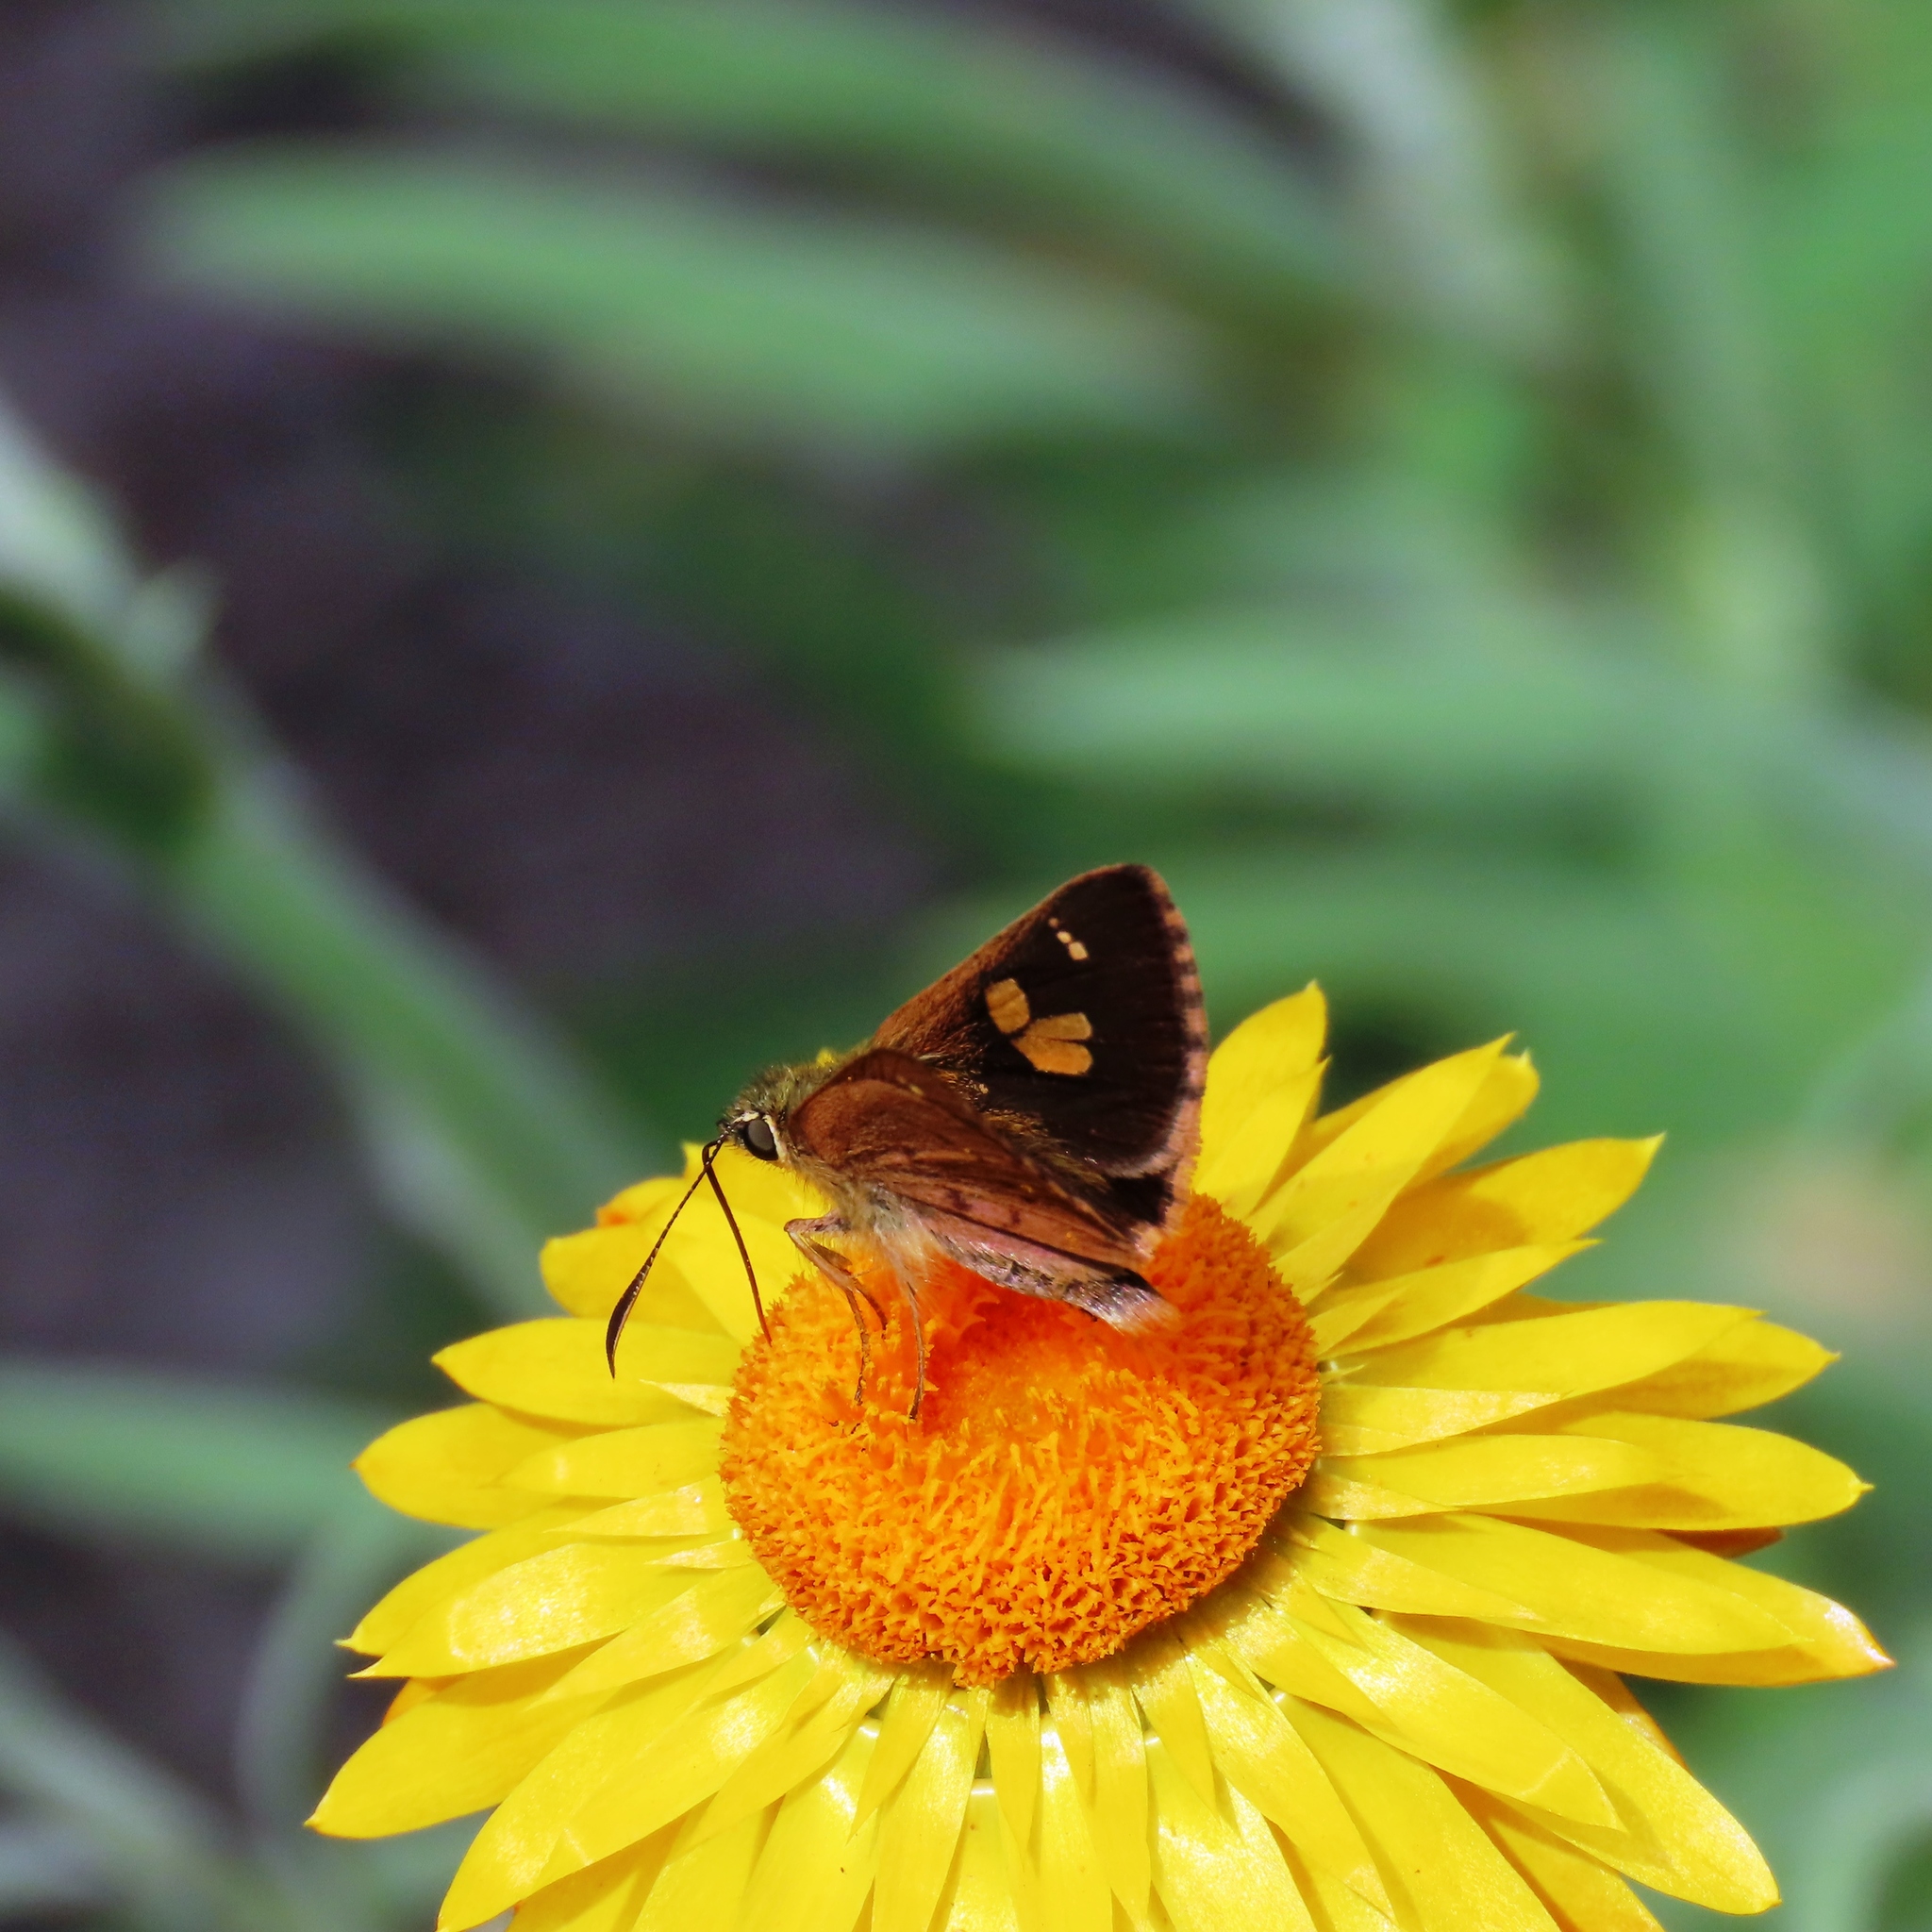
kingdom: Animalia
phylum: Arthropoda
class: Insecta
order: Lepidoptera
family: Hesperiidae
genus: Toxidia
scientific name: Toxidia
